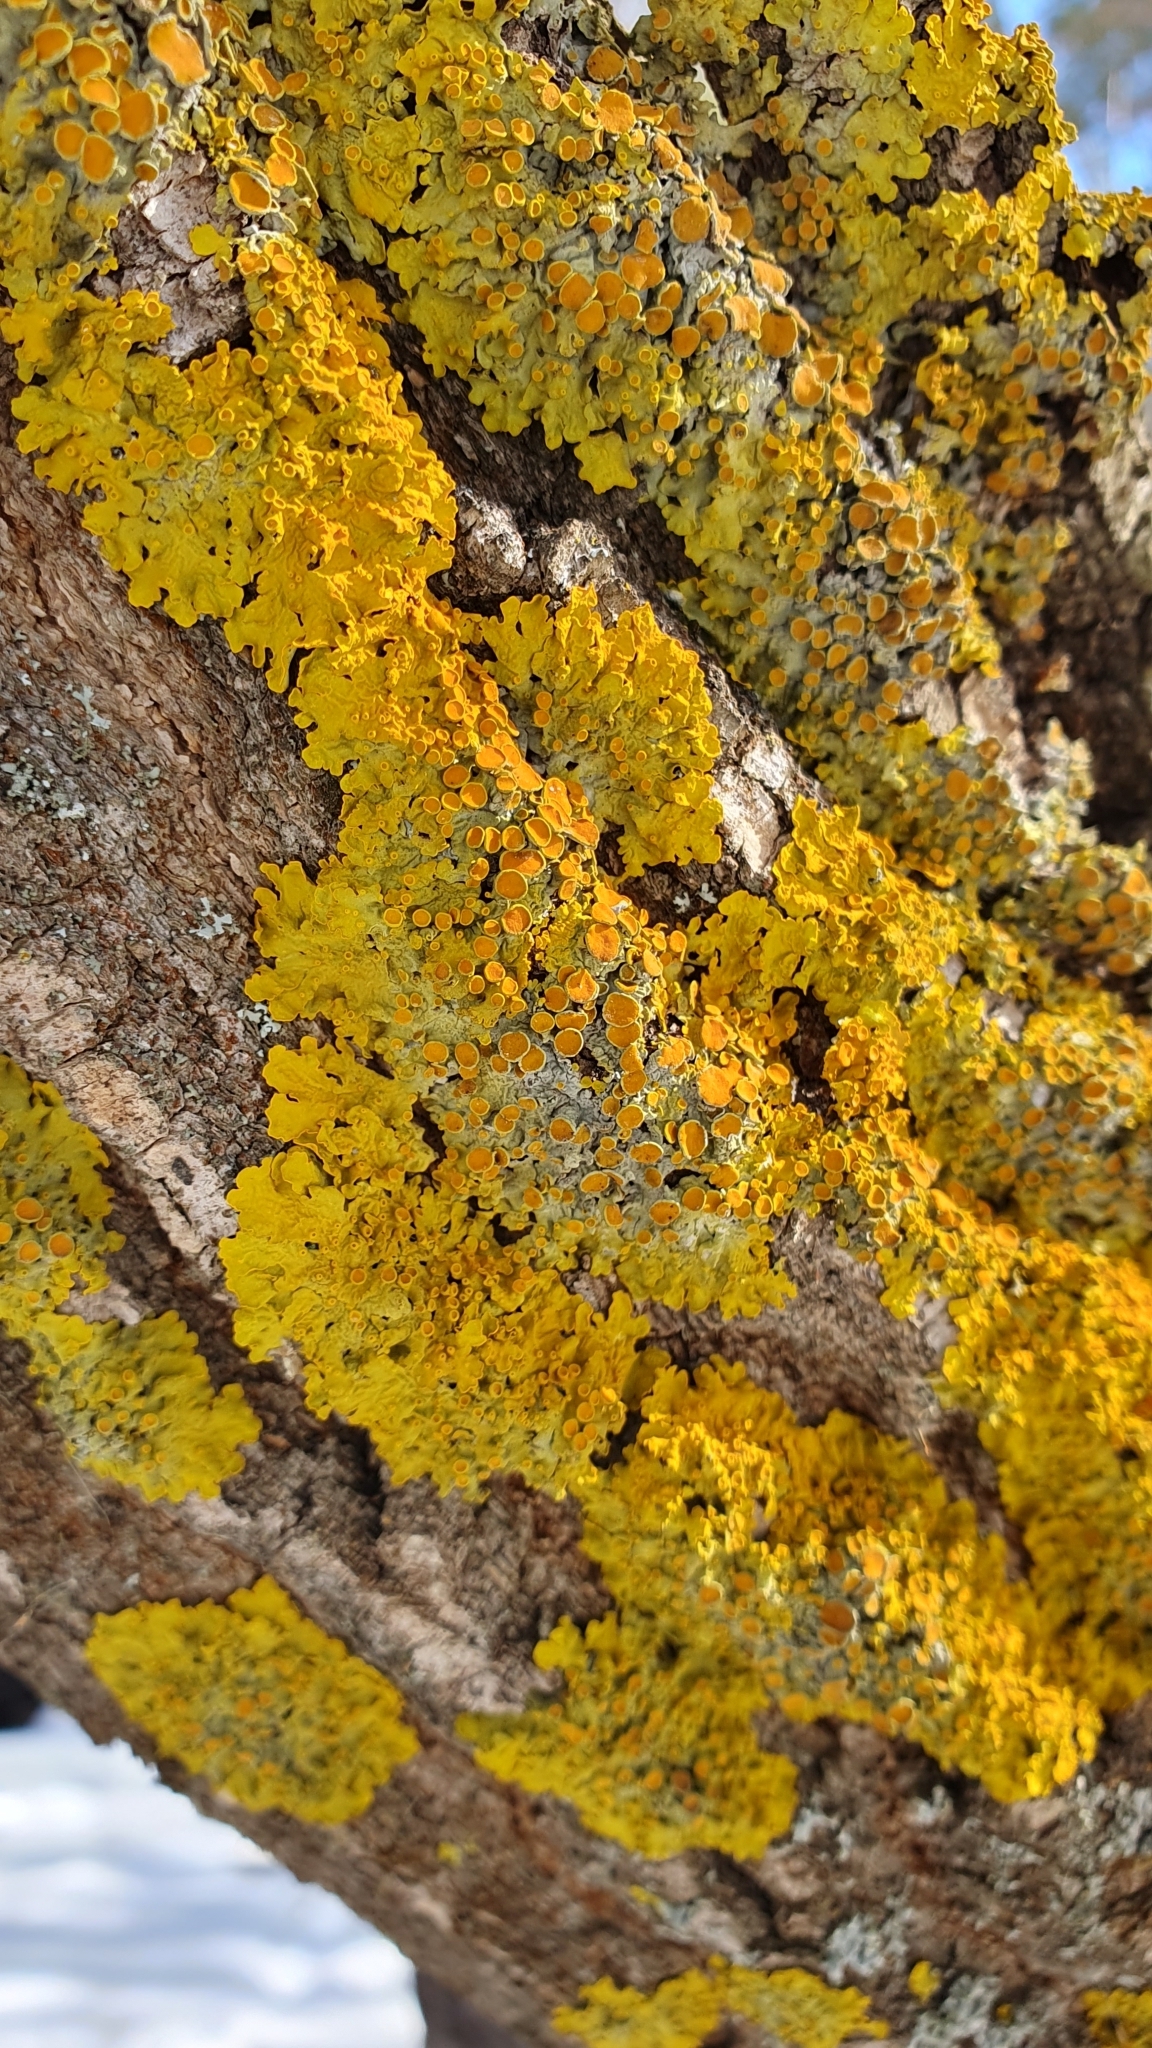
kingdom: Fungi
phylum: Ascomycota
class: Lecanoromycetes
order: Teloschistales
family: Teloschistaceae
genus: Xanthoria
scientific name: Xanthoria parietina
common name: Common orange lichen
